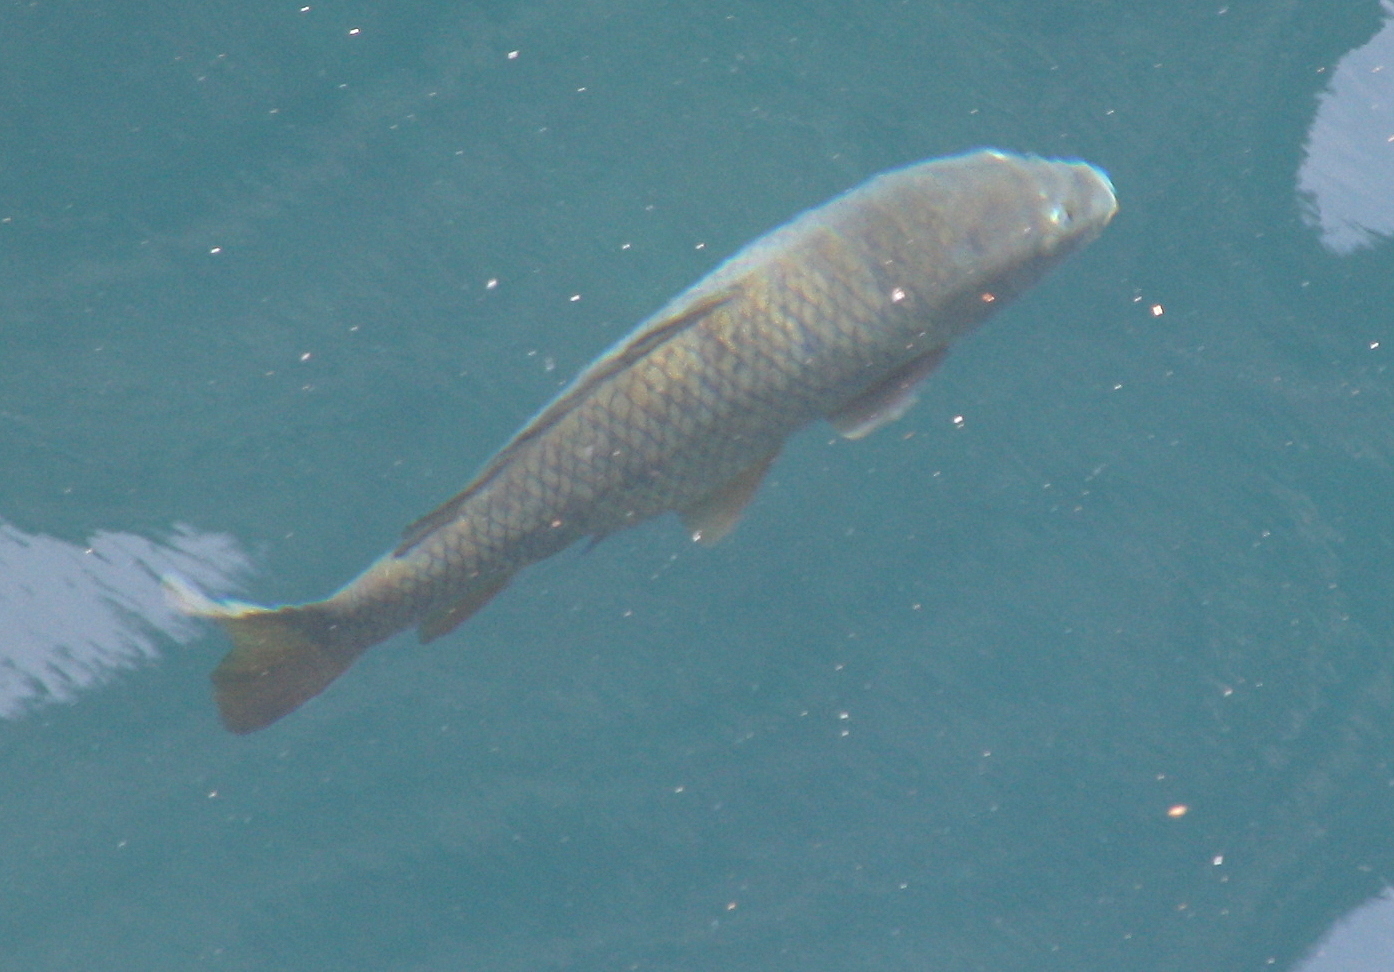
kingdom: Animalia
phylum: Chordata
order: Cypriniformes
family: Cyprinidae
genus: Cyprinus
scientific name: Cyprinus carpio
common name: Common carp
